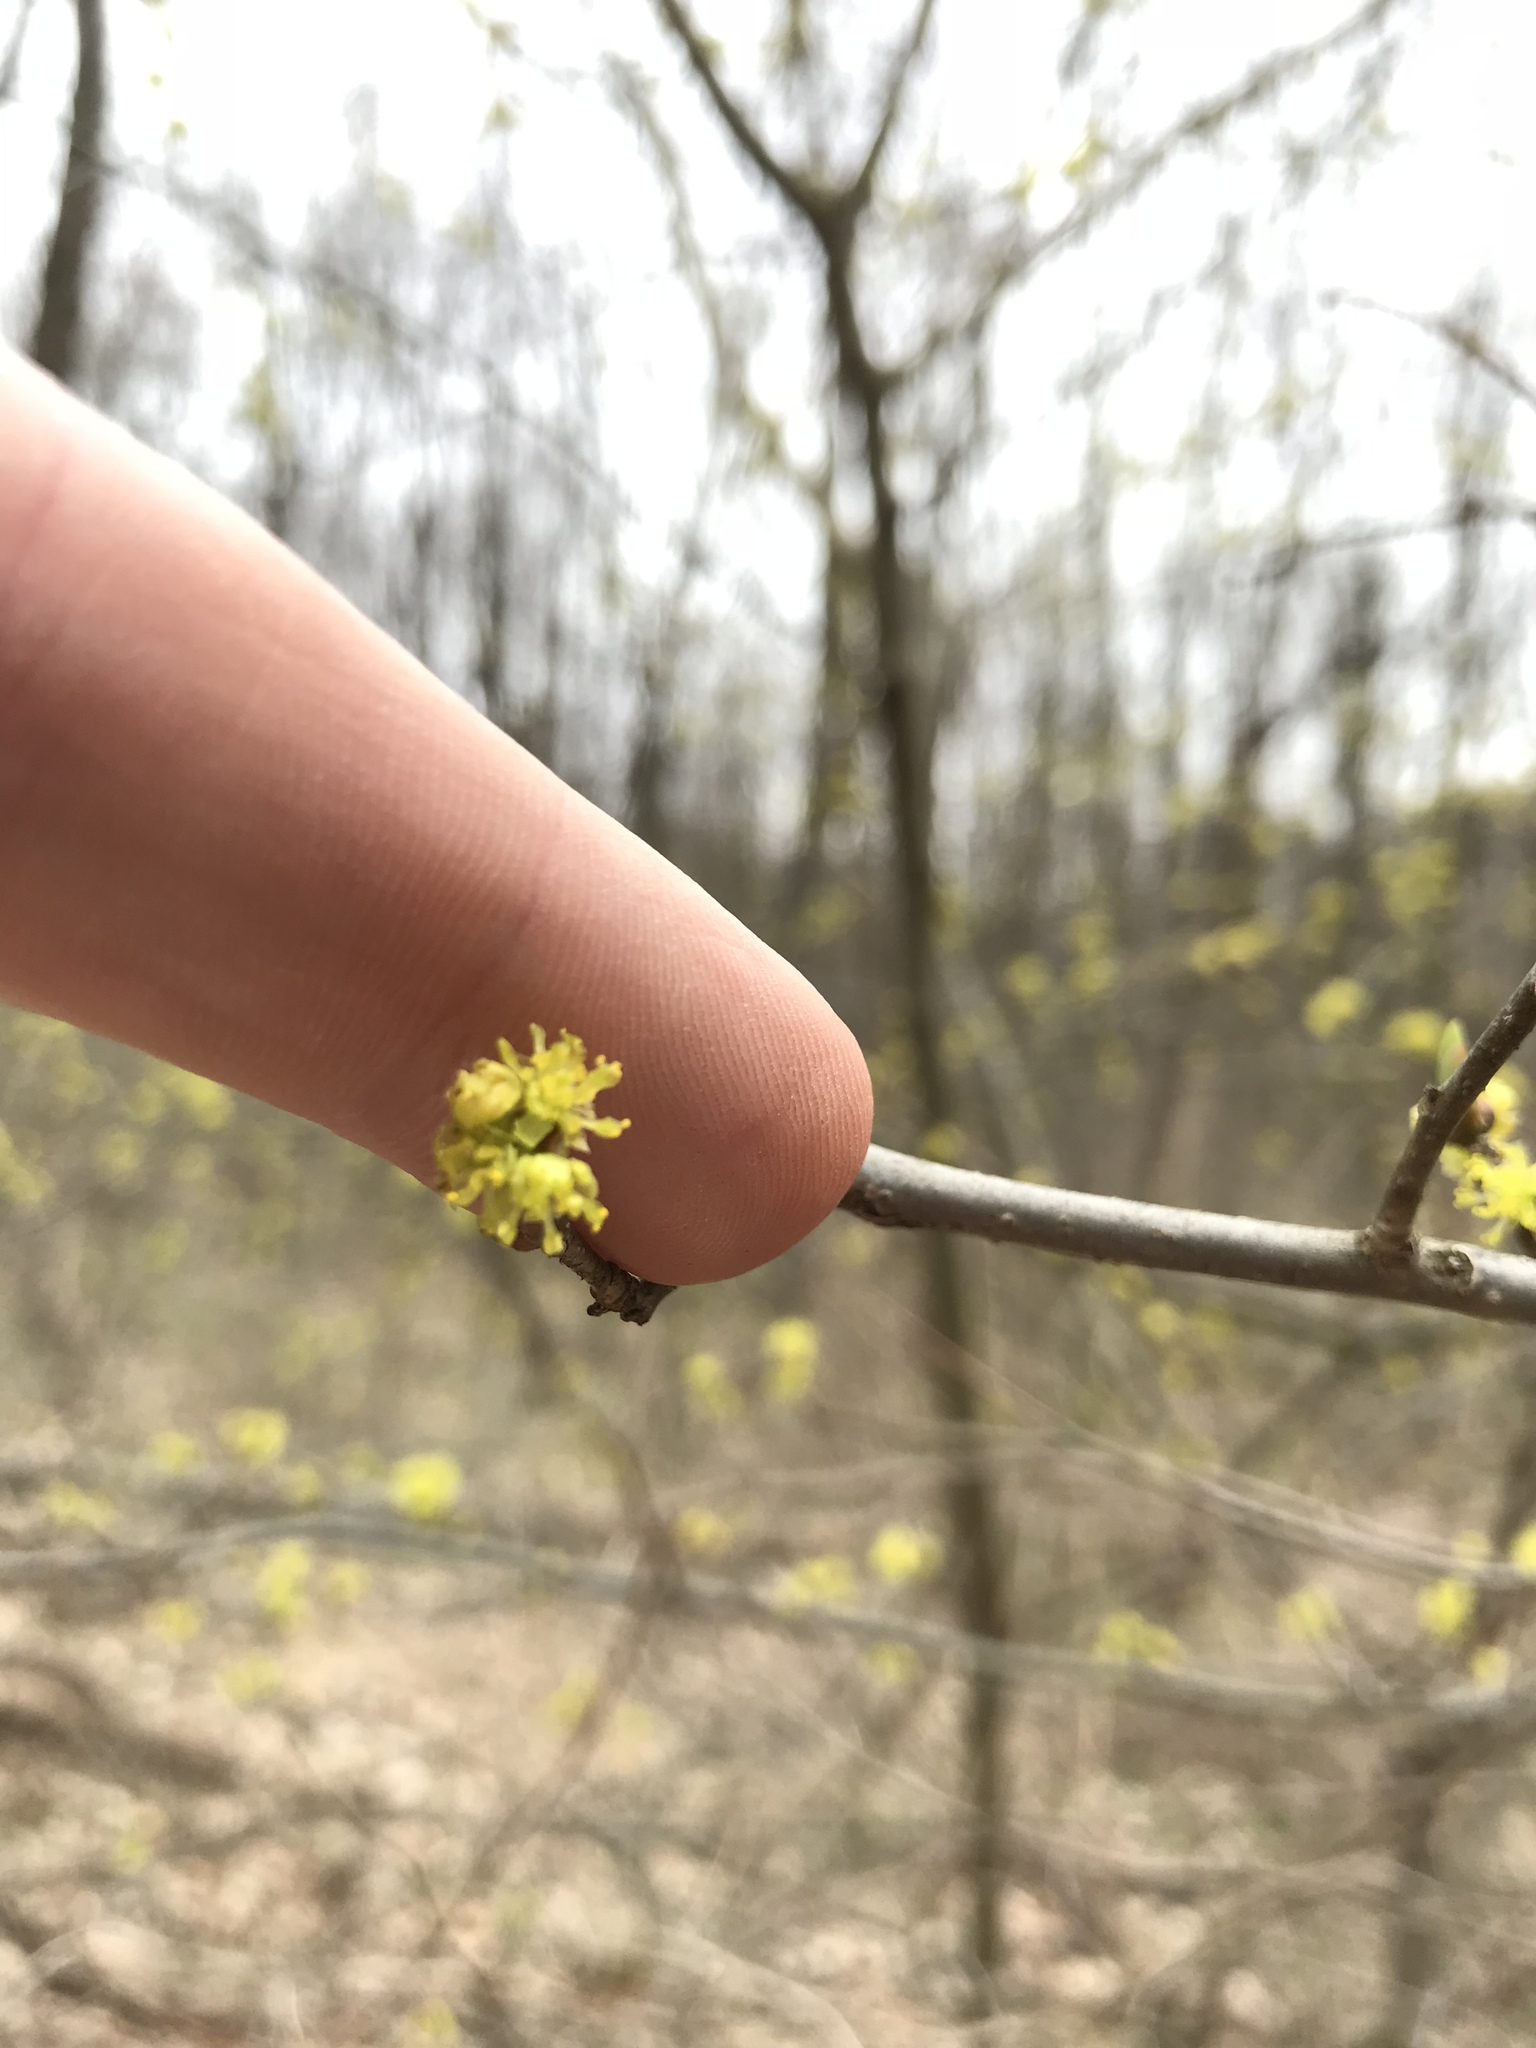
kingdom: Plantae
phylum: Tracheophyta
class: Magnoliopsida
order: Laurales
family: Lauraceae
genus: Lindera
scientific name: Lindera benzoin
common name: Spicebush
